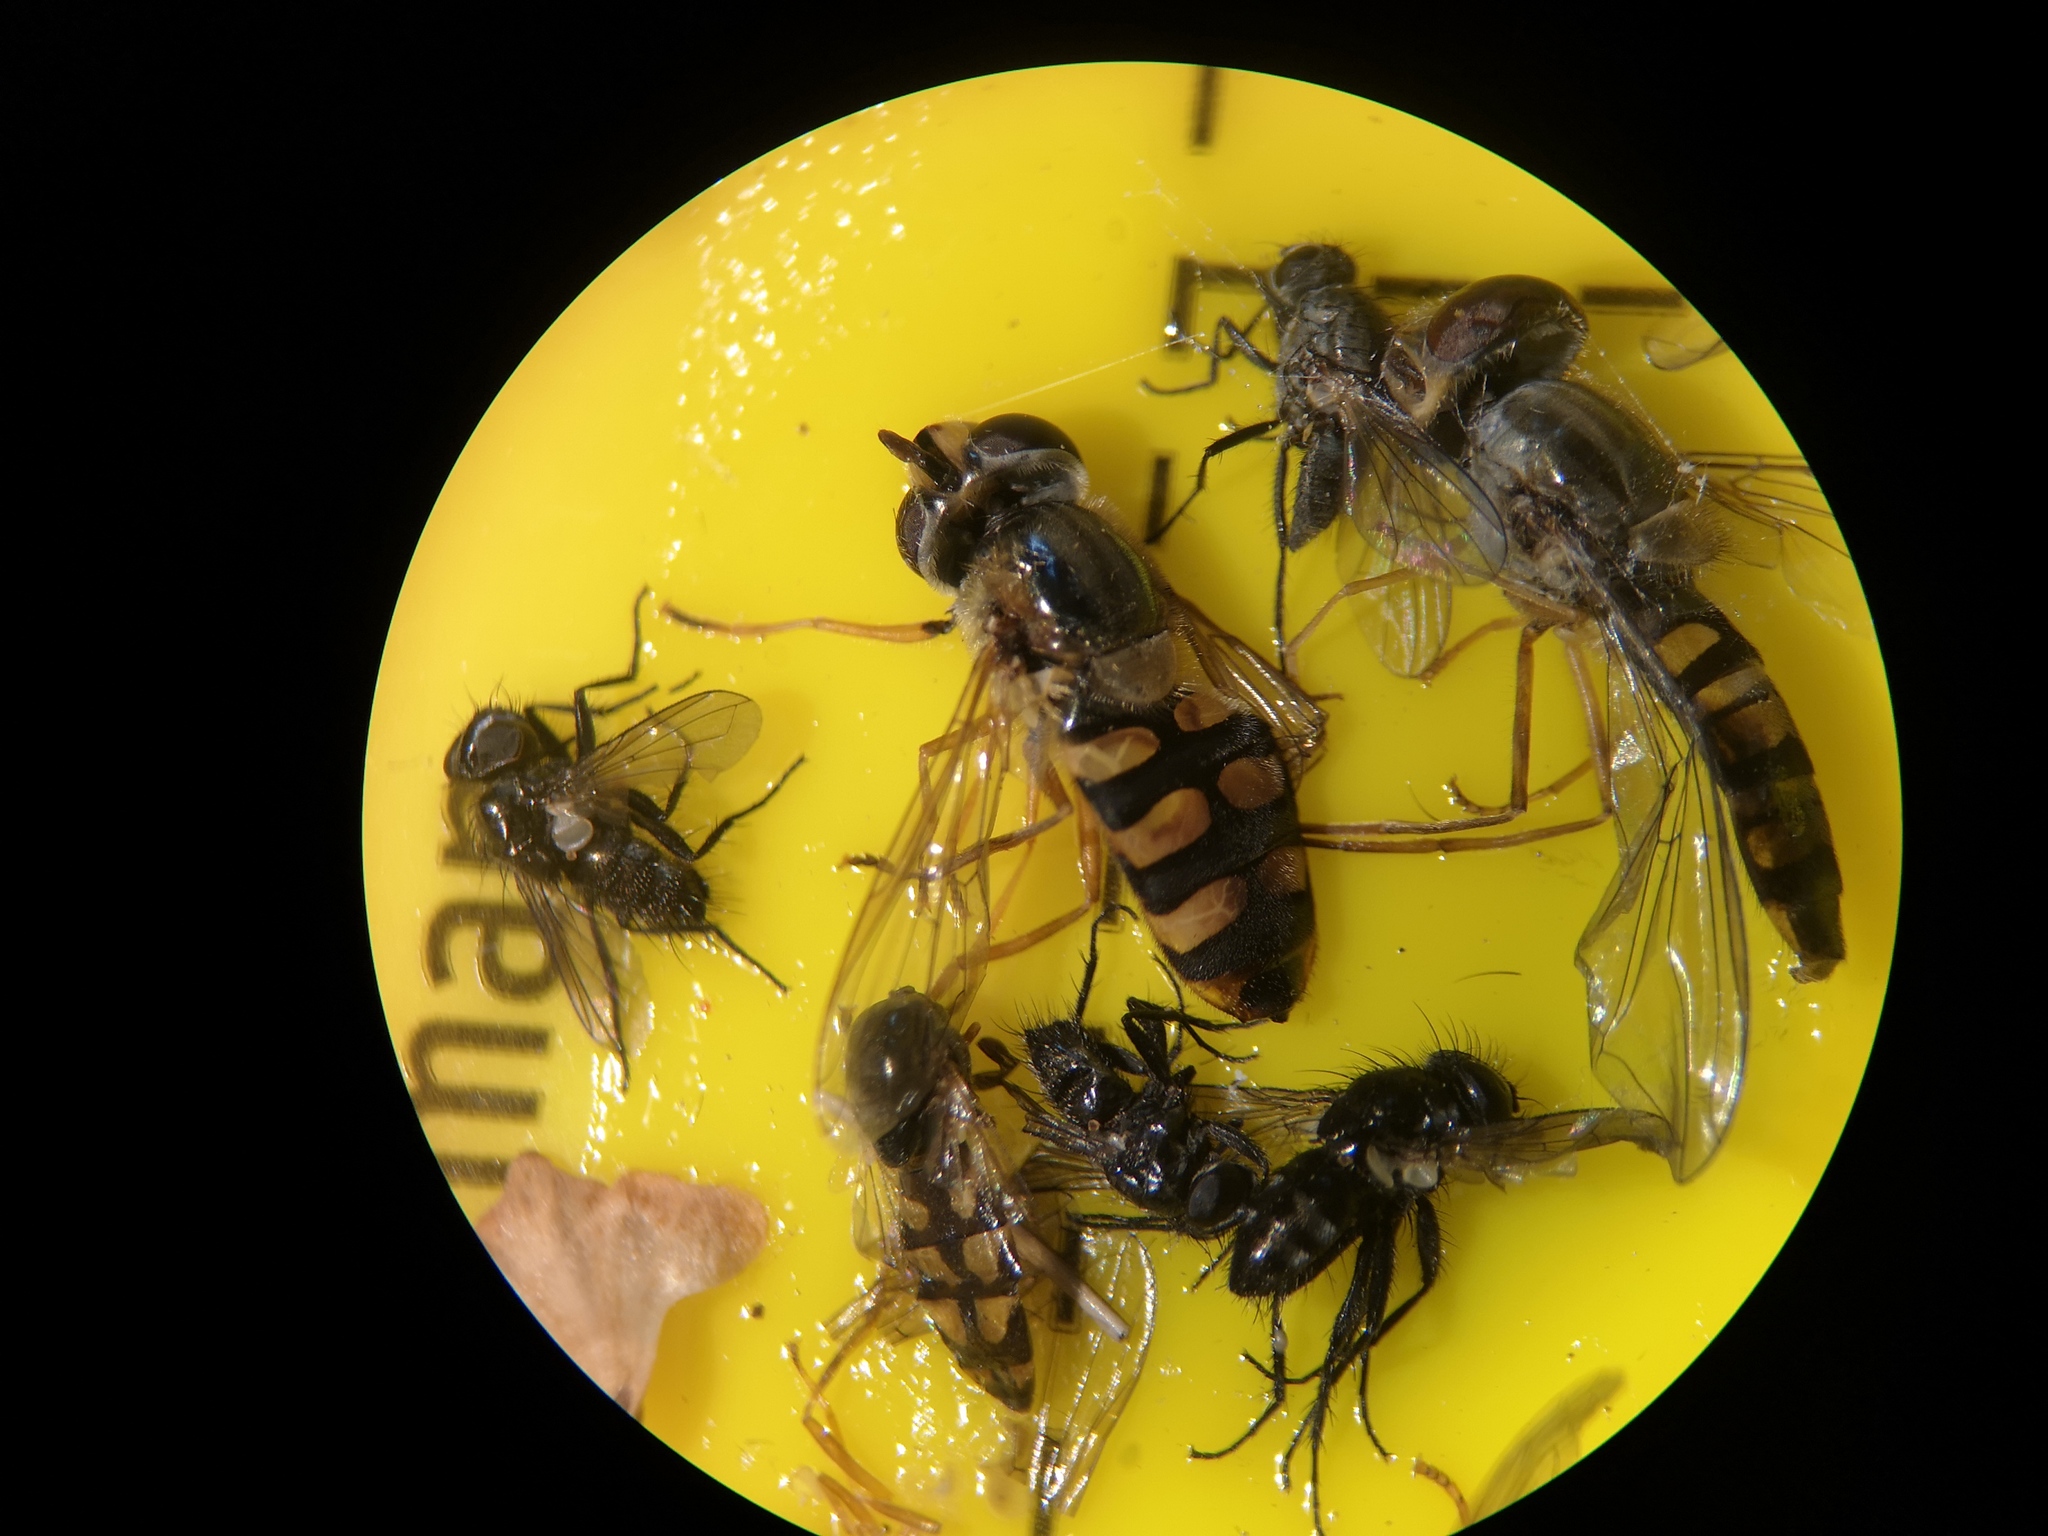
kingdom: Animalia
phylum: Arthropoda
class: Insecta
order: Diptera
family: Syrphidae
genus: Eupeodes
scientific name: Eupeodes corollae
